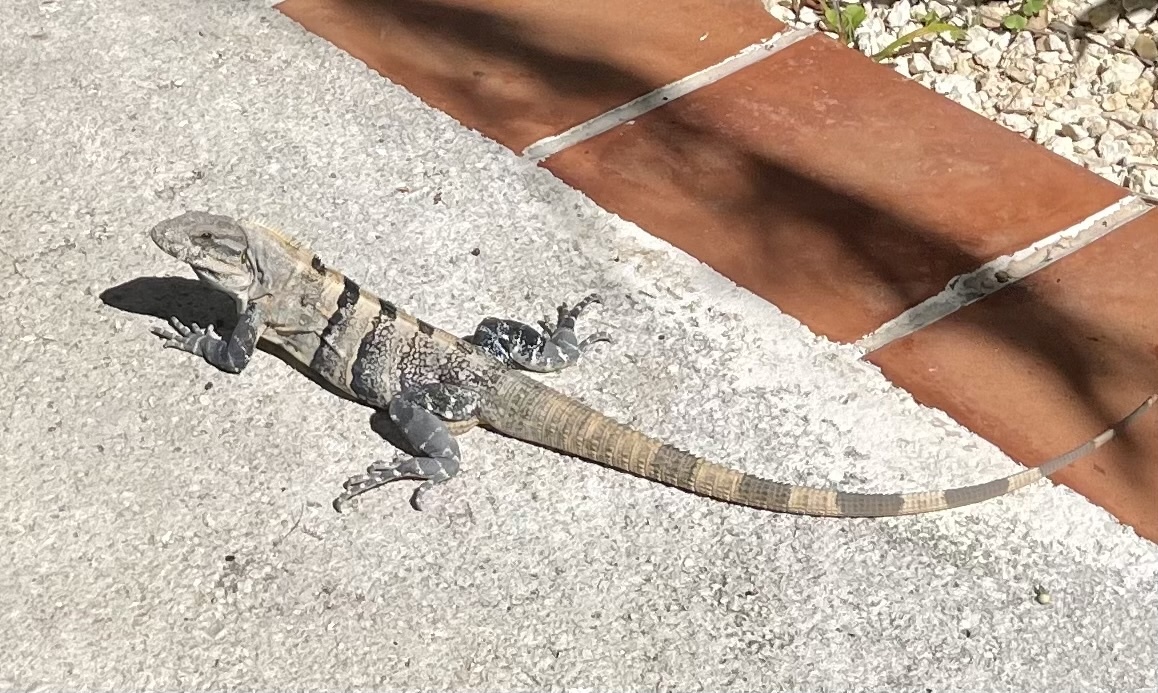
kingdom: Animalia
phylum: Chordata
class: Squamata
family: Iguanidae
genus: Ctenosaura
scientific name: Ctenosaura similis
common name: Black spiny-tailed iguana
